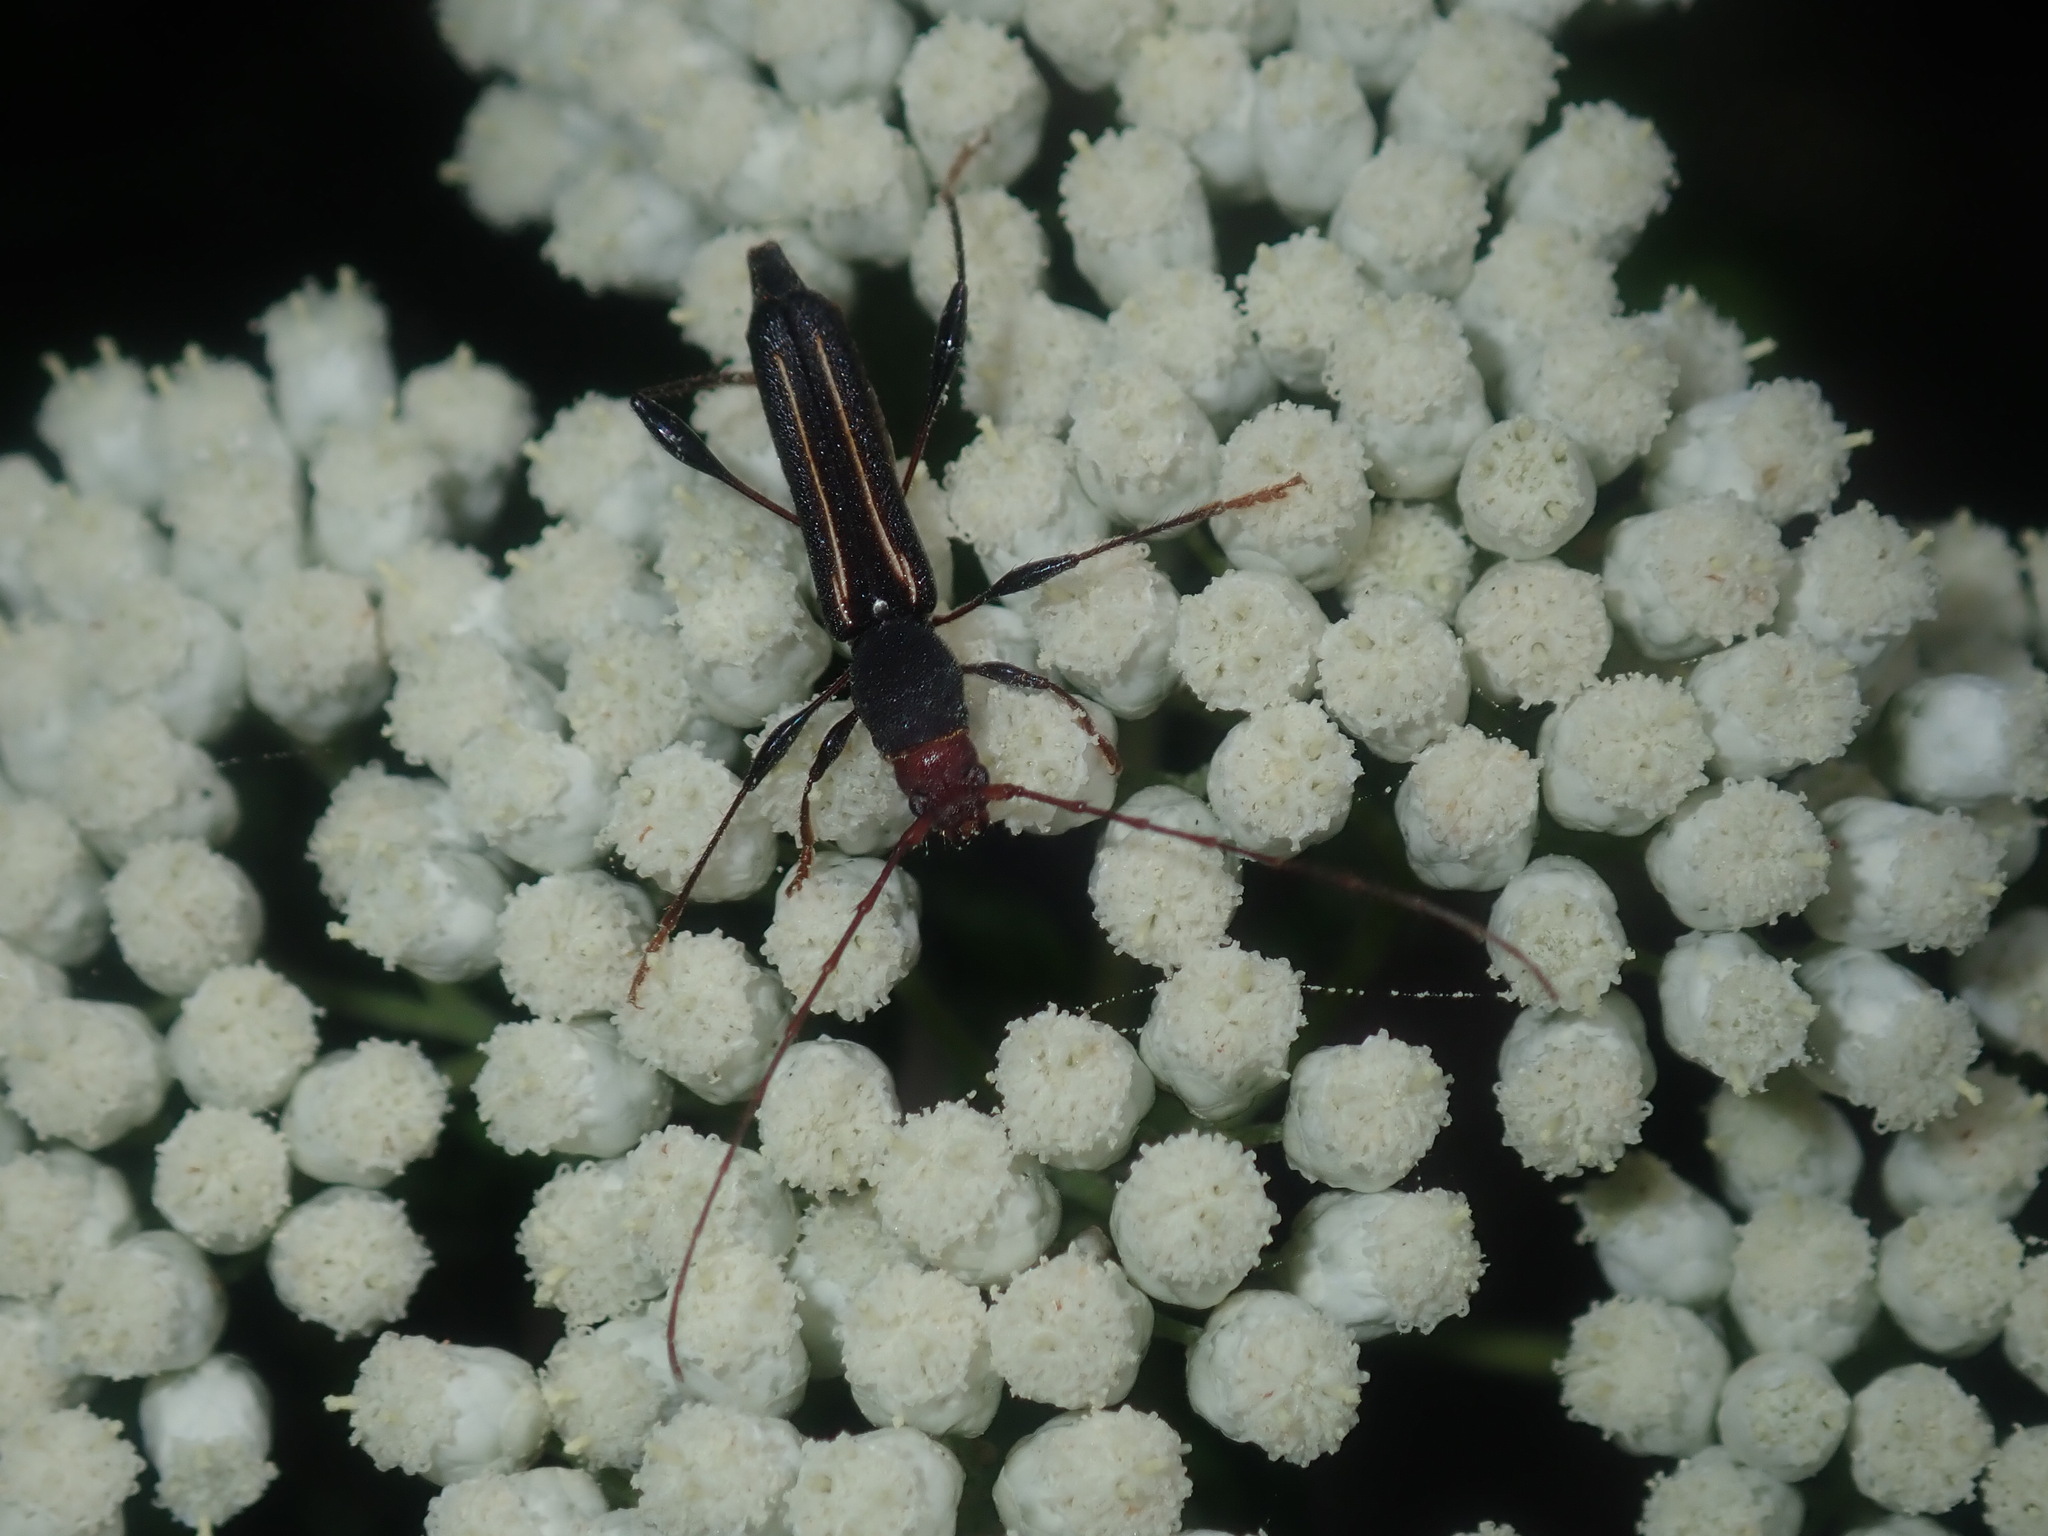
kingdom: Animalia
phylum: Arthropoda
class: Insecta
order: Coleoptera
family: Cerambycidae
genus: Amphirhoe
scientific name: Amphirhoe sloanei
